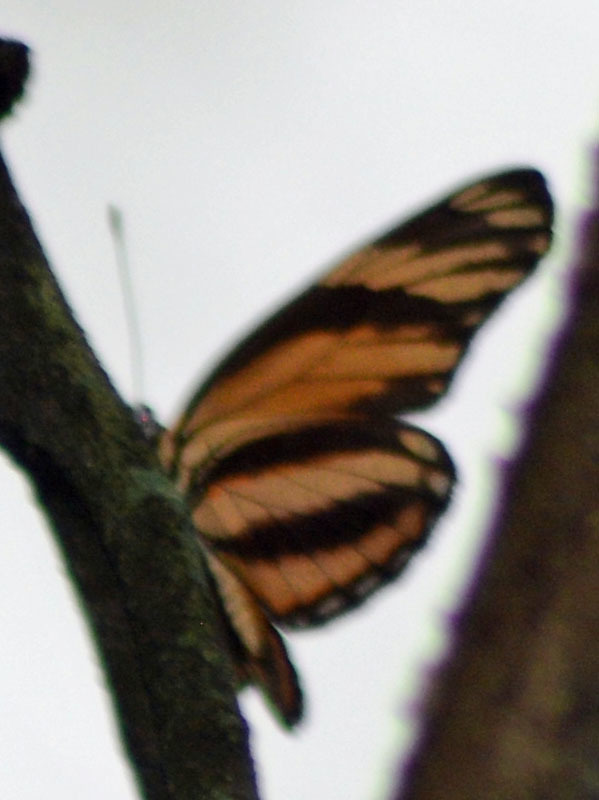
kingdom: Animalia
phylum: Arthropoda
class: Insecta
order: Lepidoptera
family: Nymphalidae
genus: Eresia
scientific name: Eresia phillyra
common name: Longwing crescent
